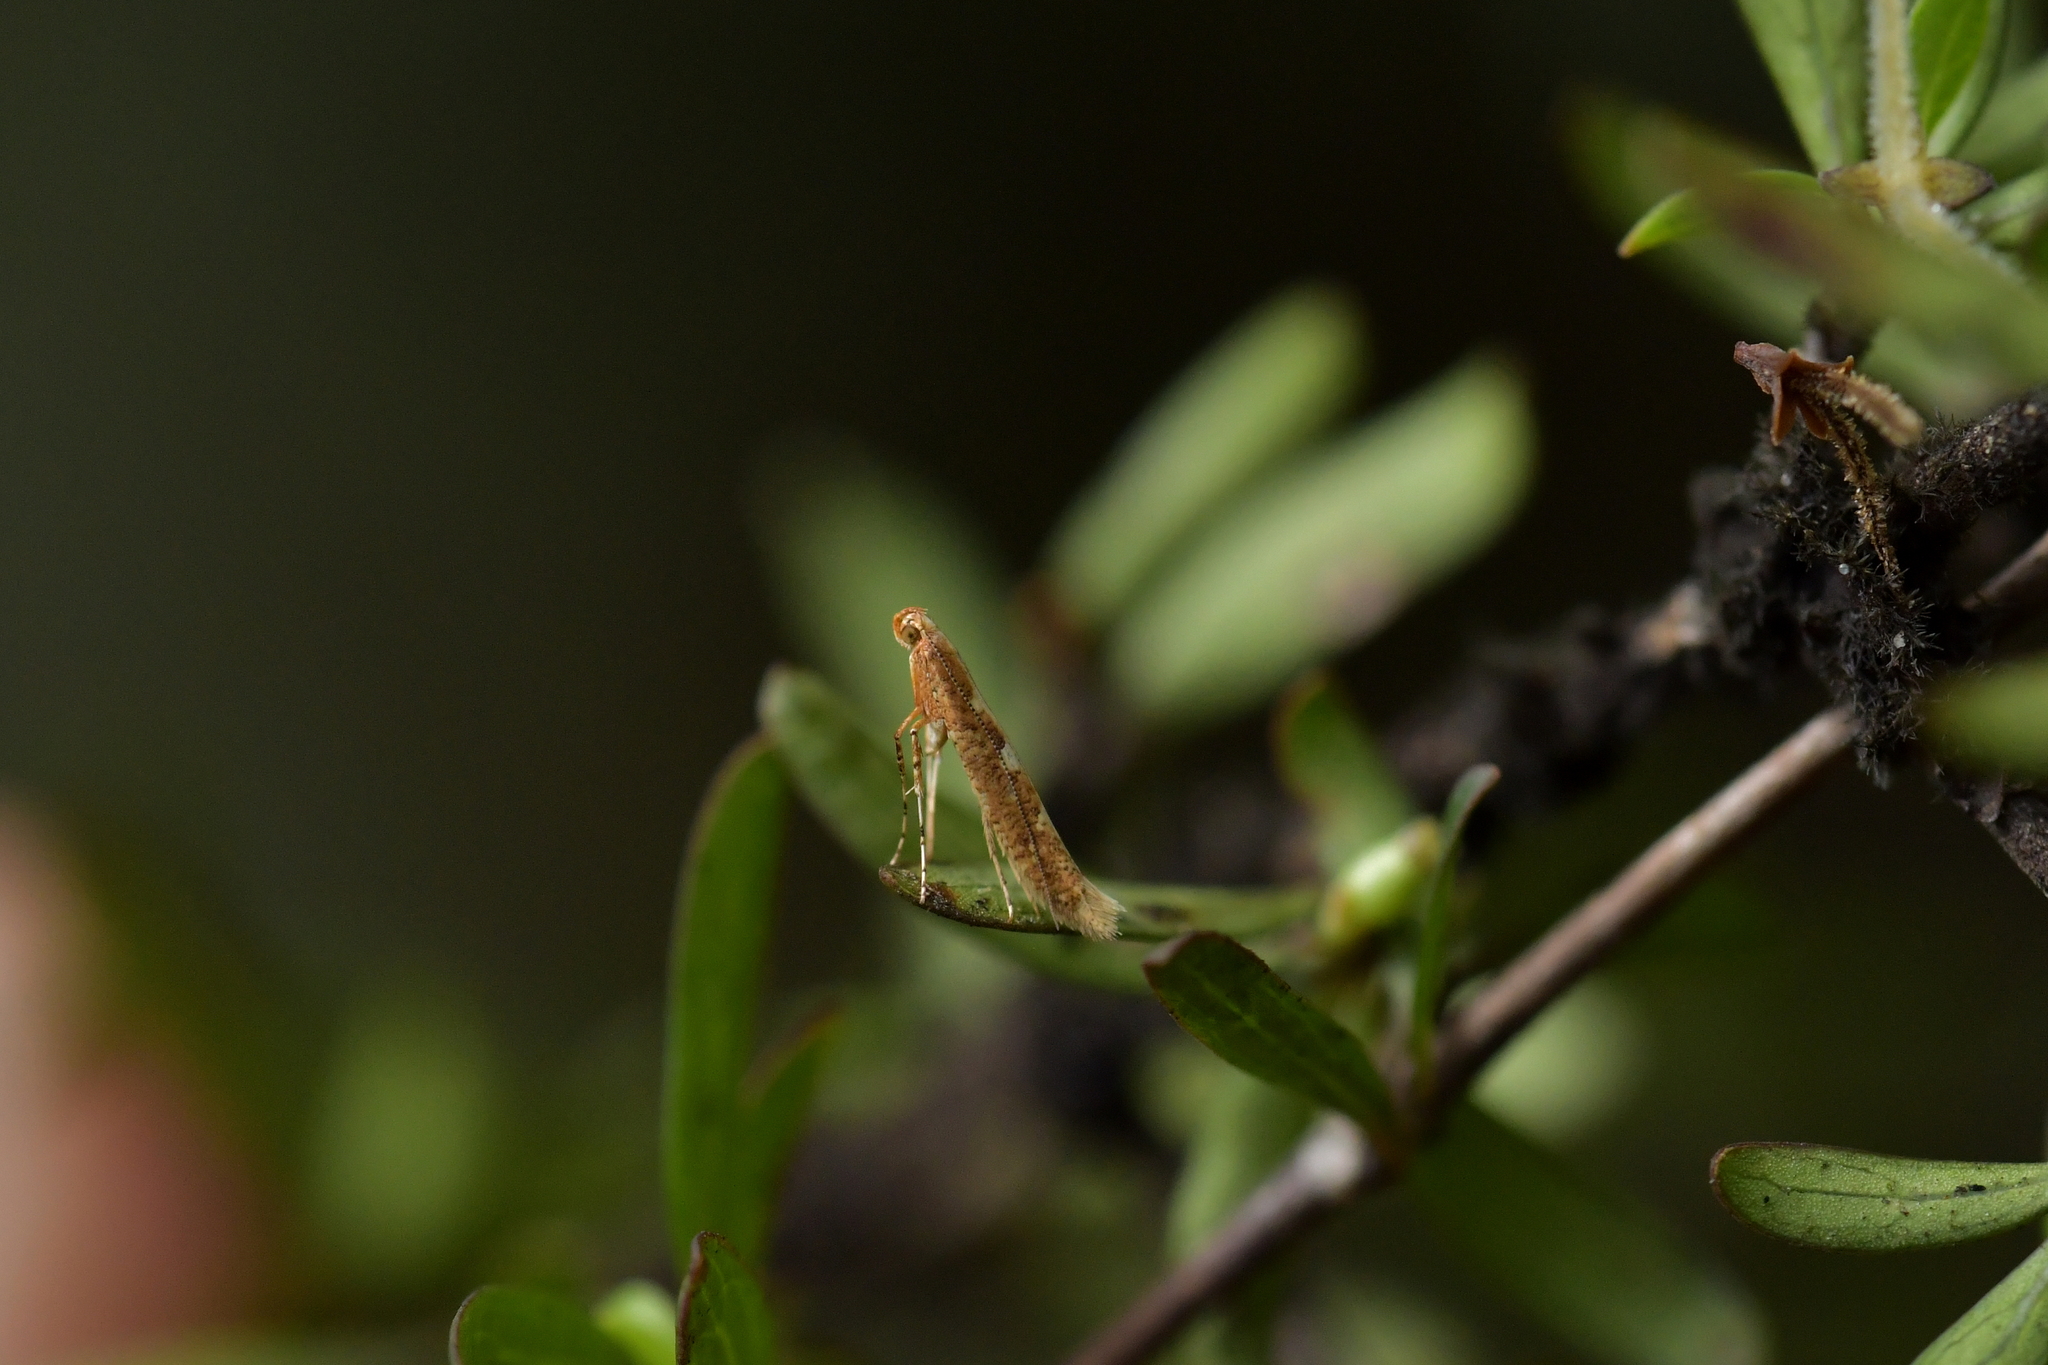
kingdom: Animalia
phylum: Arthropoda
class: Insecta
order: Lepidoptera
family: Gracillariidae
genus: Caloptilia
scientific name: Caloptilia selenitis
